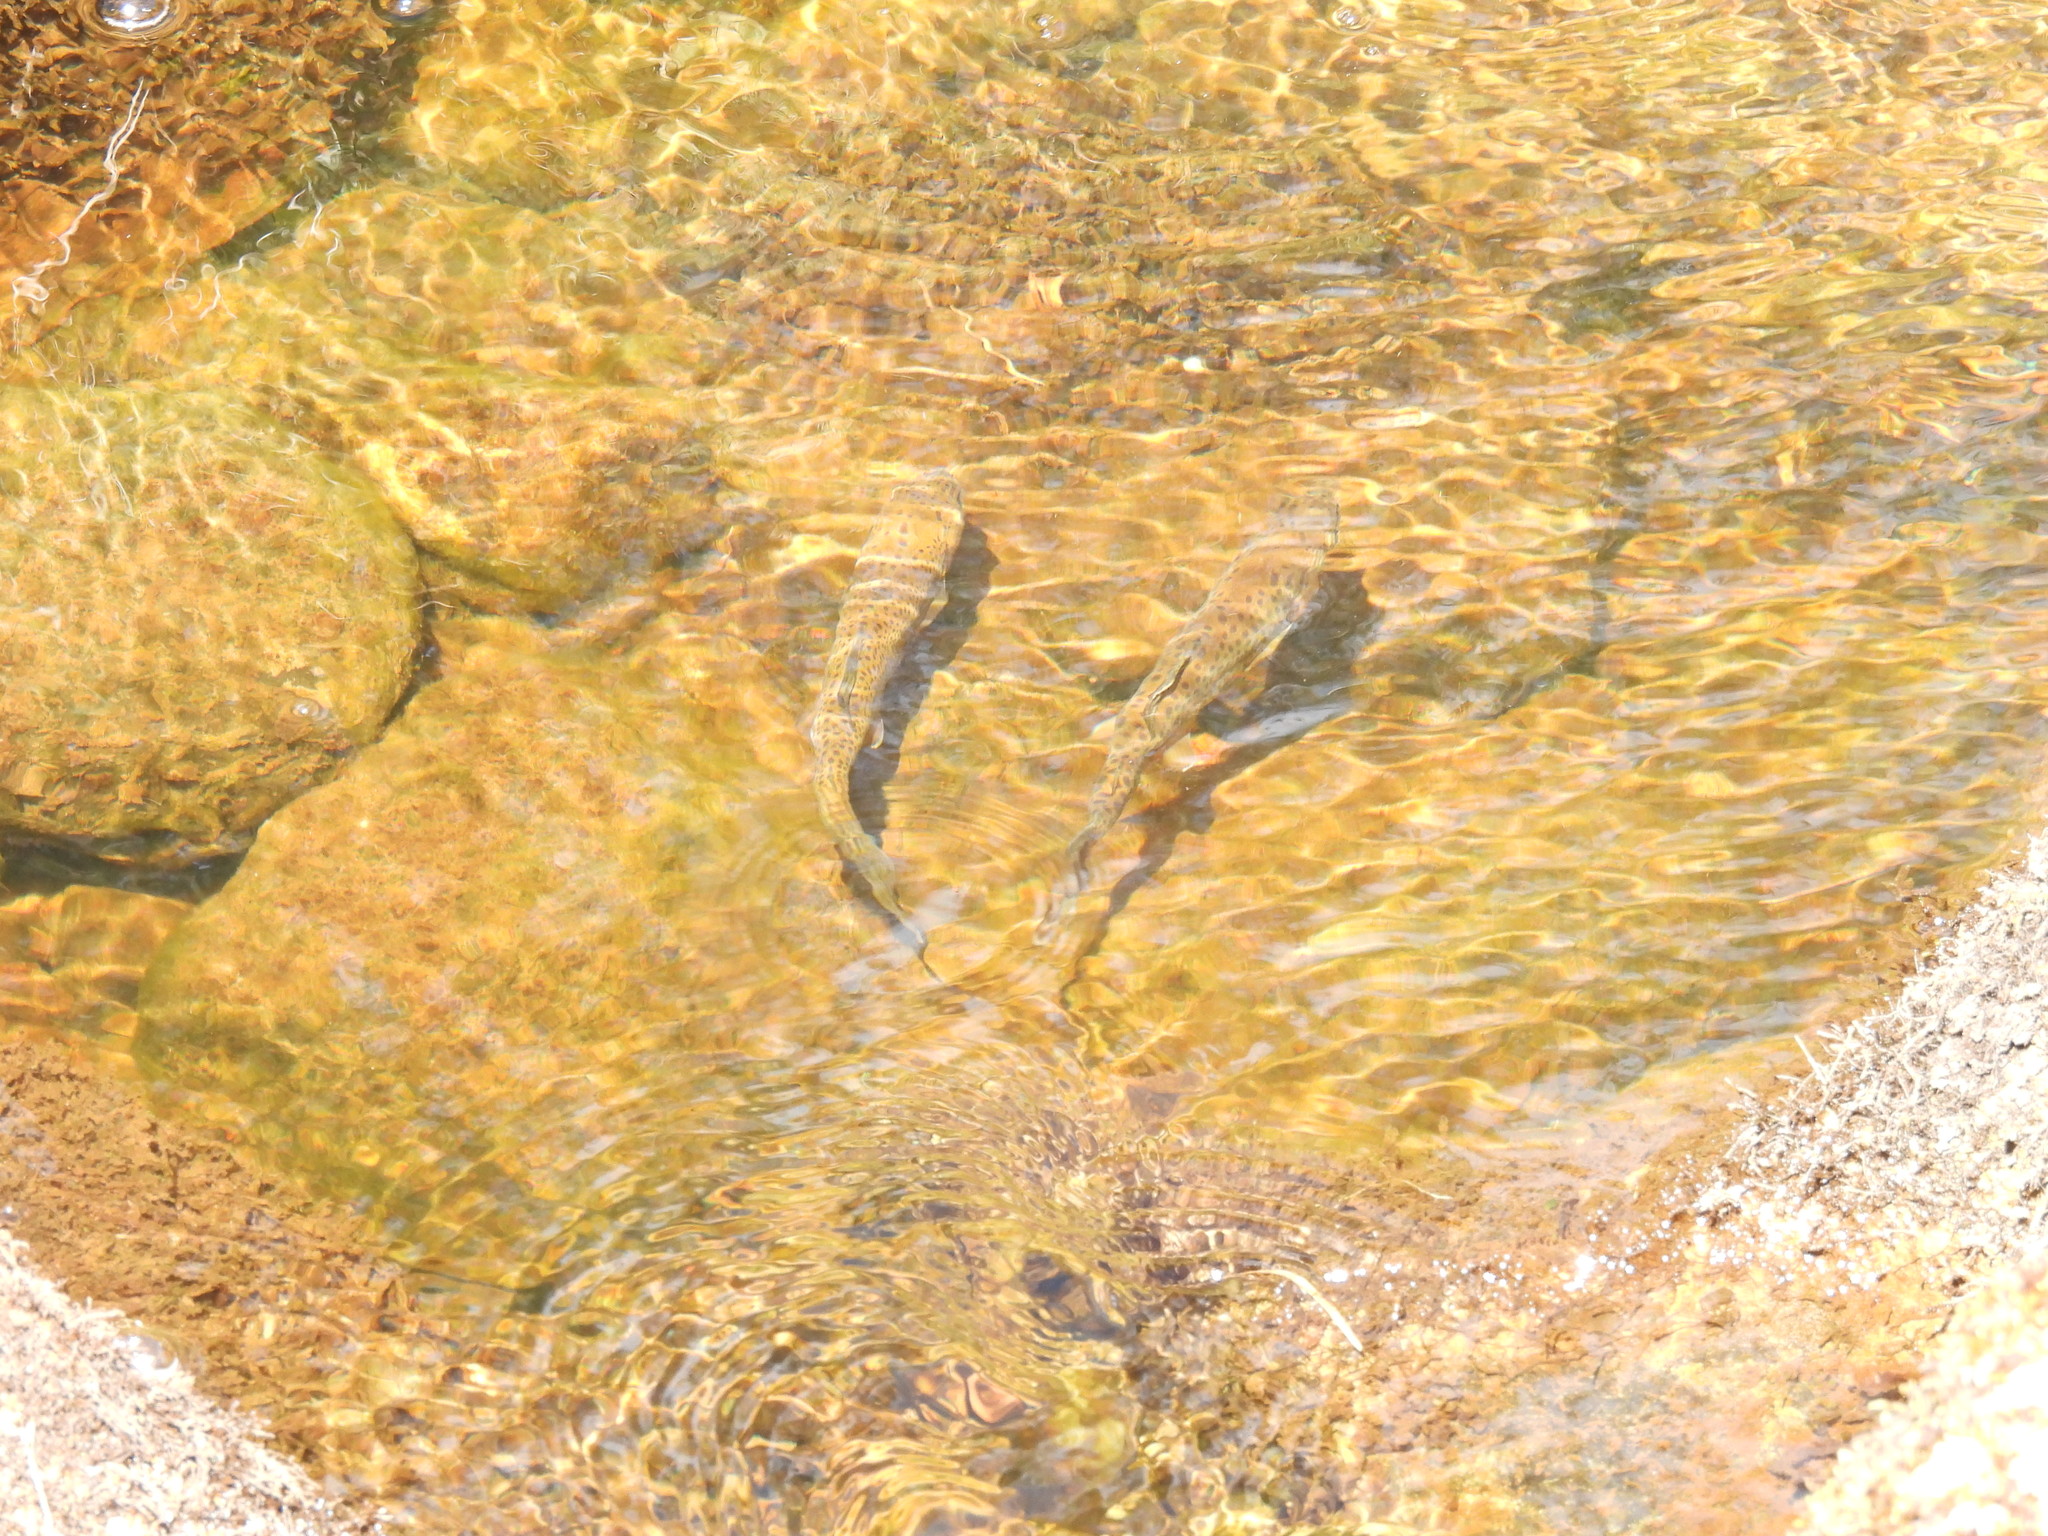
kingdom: Animalia
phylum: Chordata
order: Salmoniformes
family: Salmonidae
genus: Oncorhynchus
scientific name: Oncorhynchus mykiss
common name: Rainbow trout
